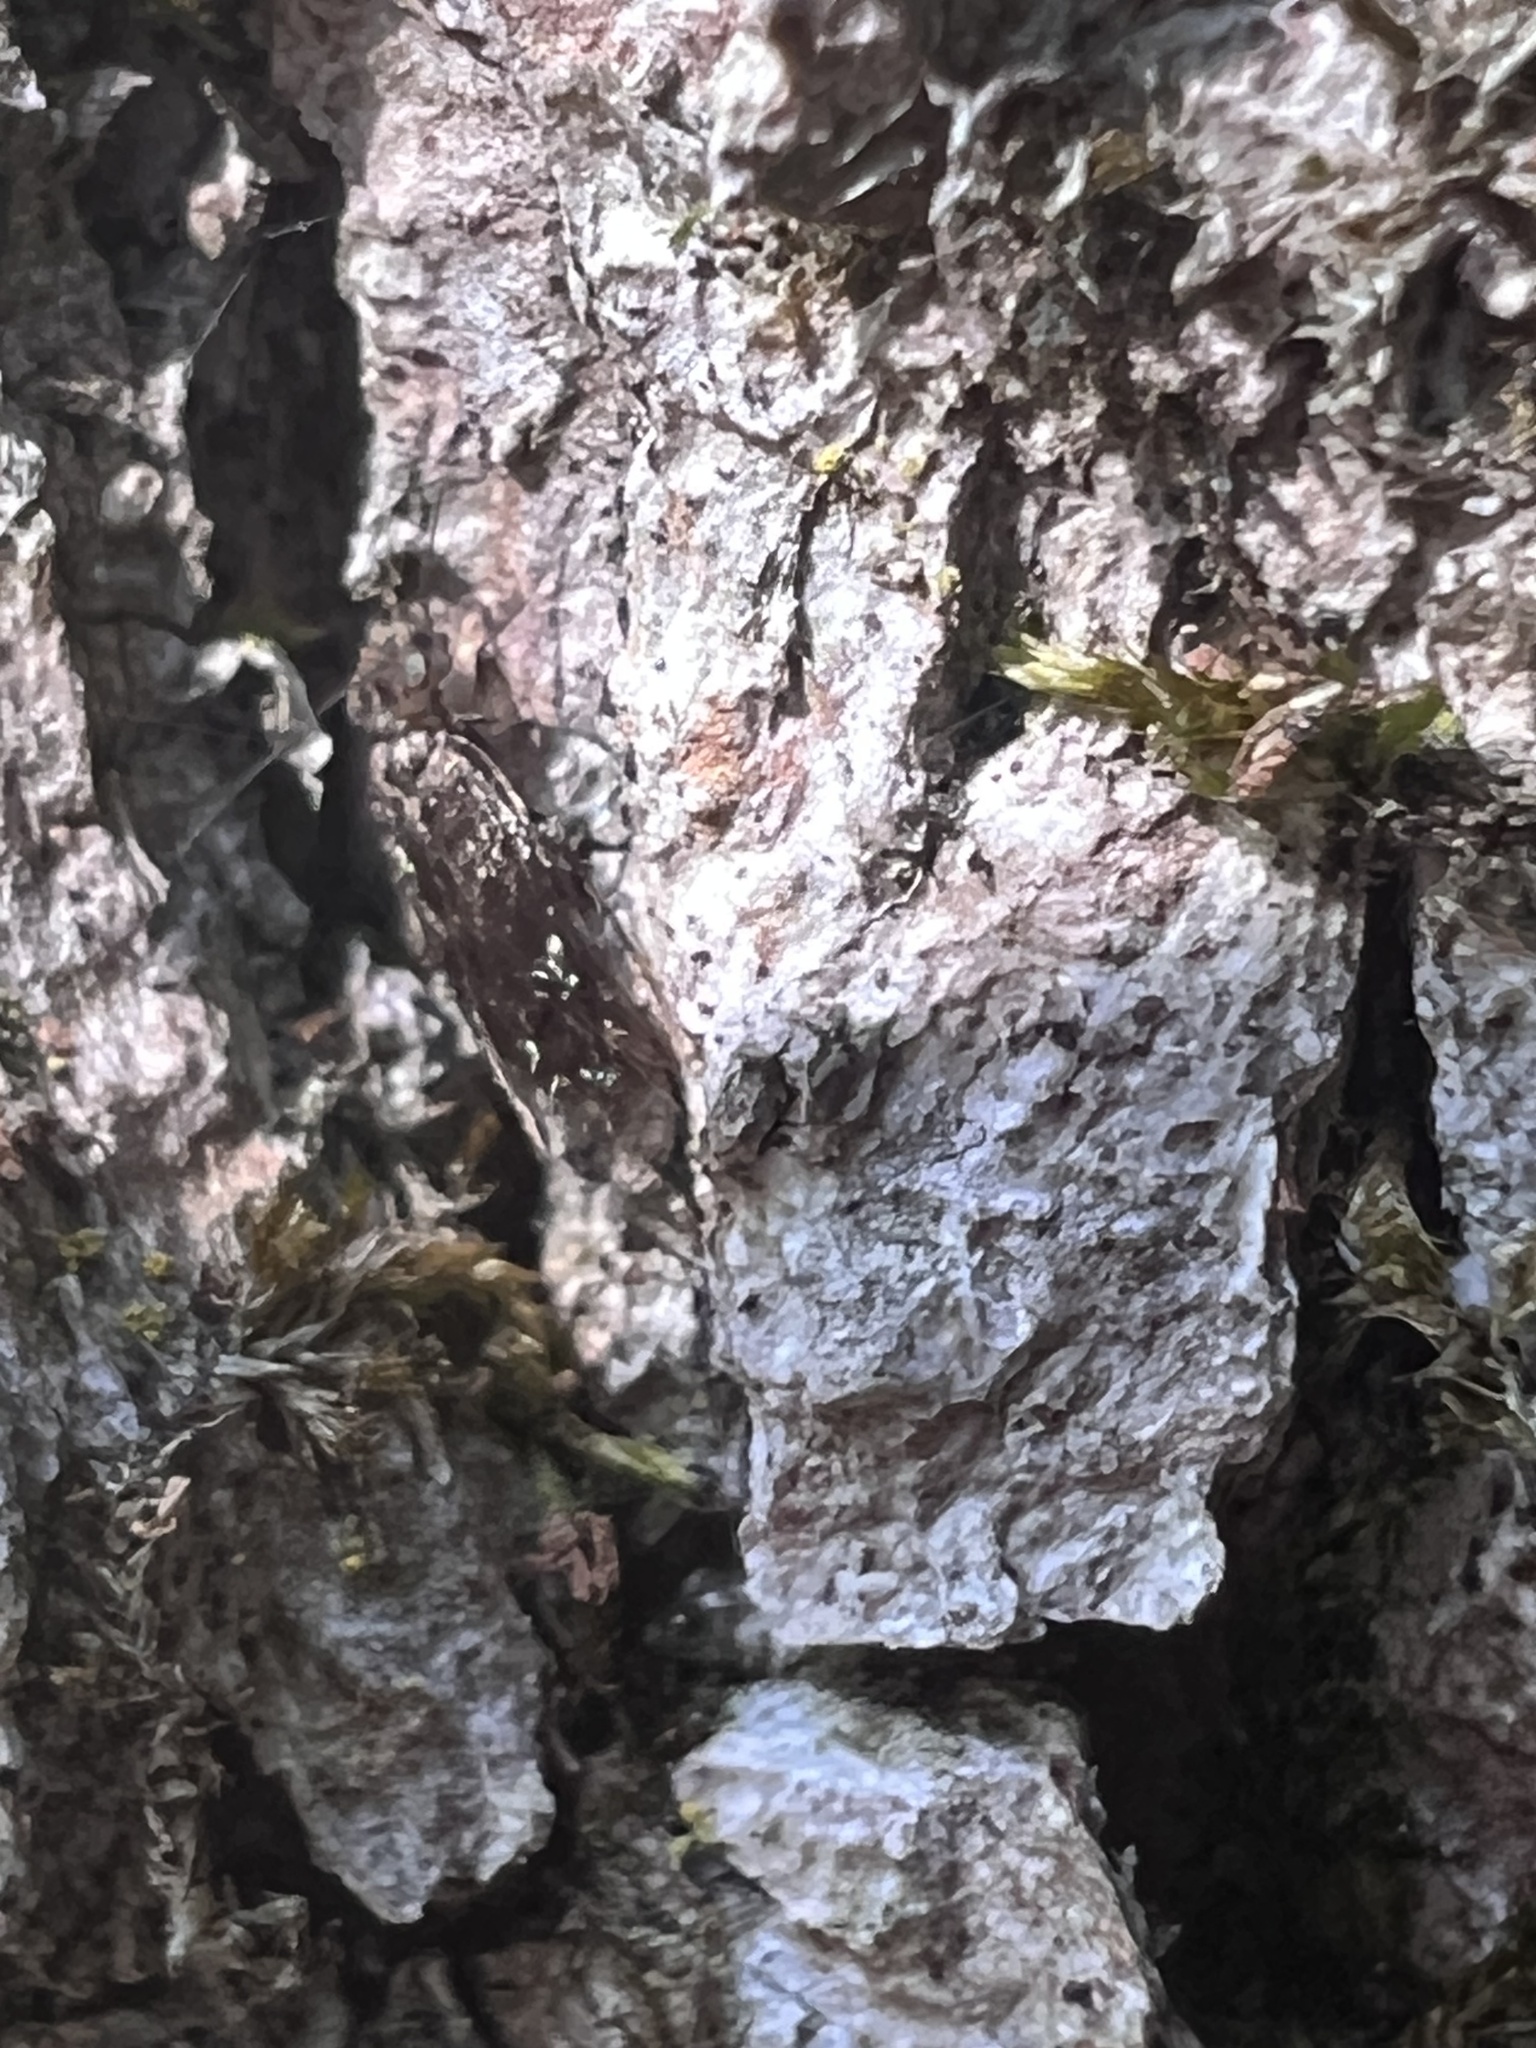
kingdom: Animalia
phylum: Arthropoda
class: Insecta
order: Psocodea
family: Lepidopsocidae
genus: Echmepteryx
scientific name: Echmepteryx hageni
